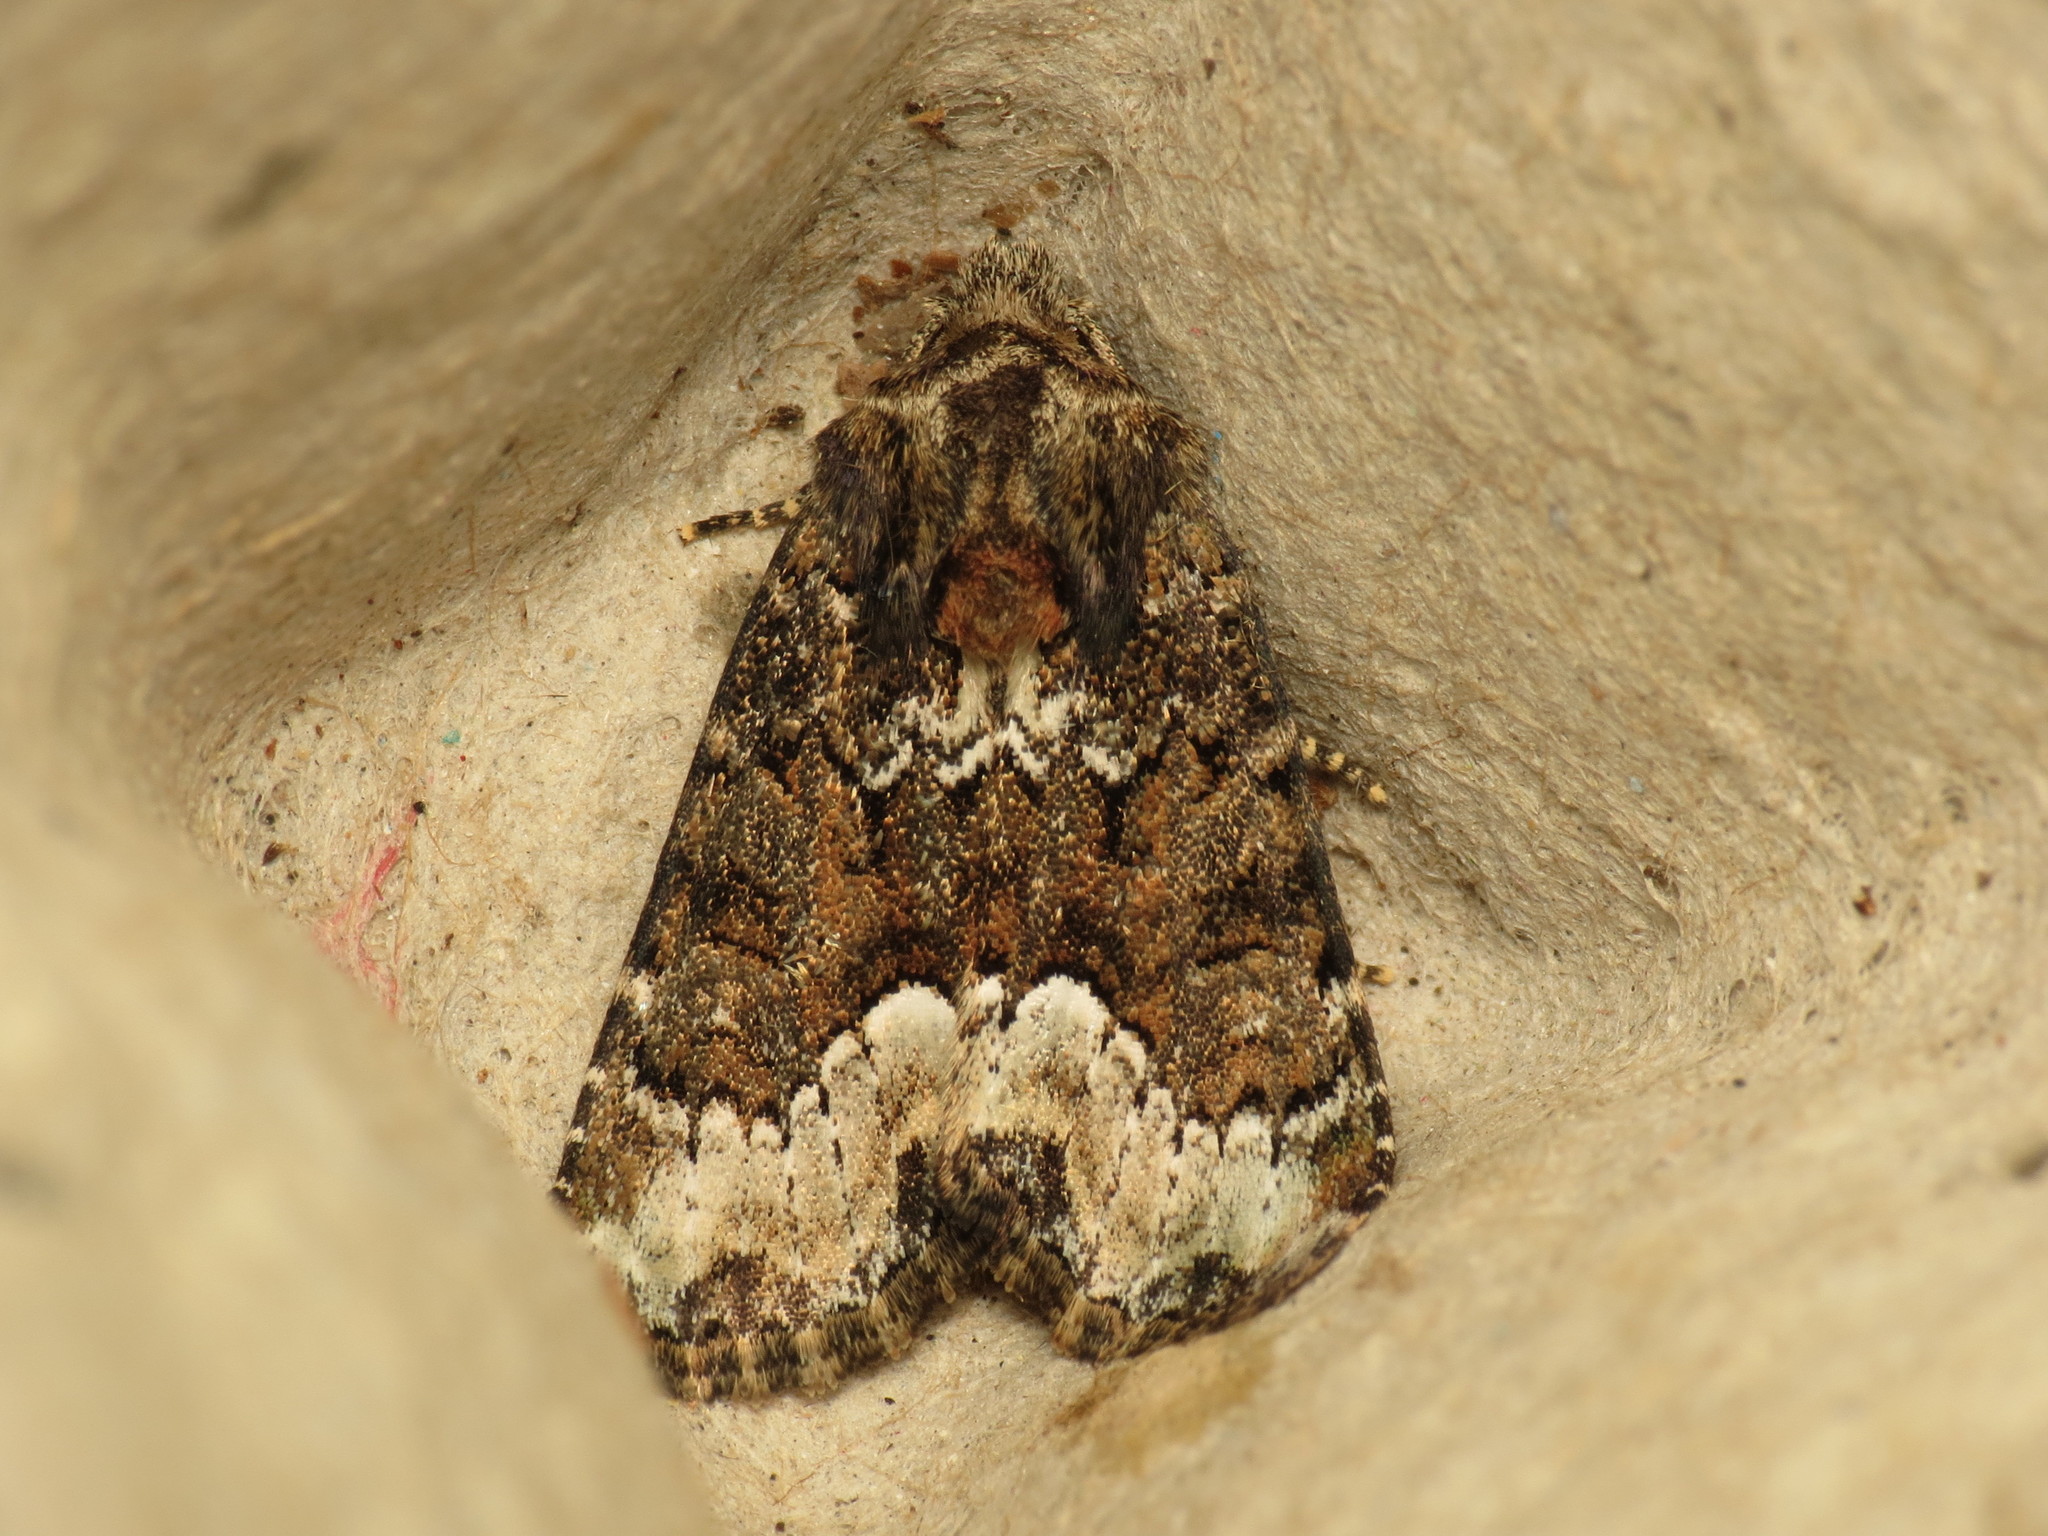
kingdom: Animalia
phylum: Arthropoda
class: Insecta
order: Lepidoptera
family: Noctuidae
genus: Oligia
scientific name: Oligia strigilis
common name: Marbled minor
